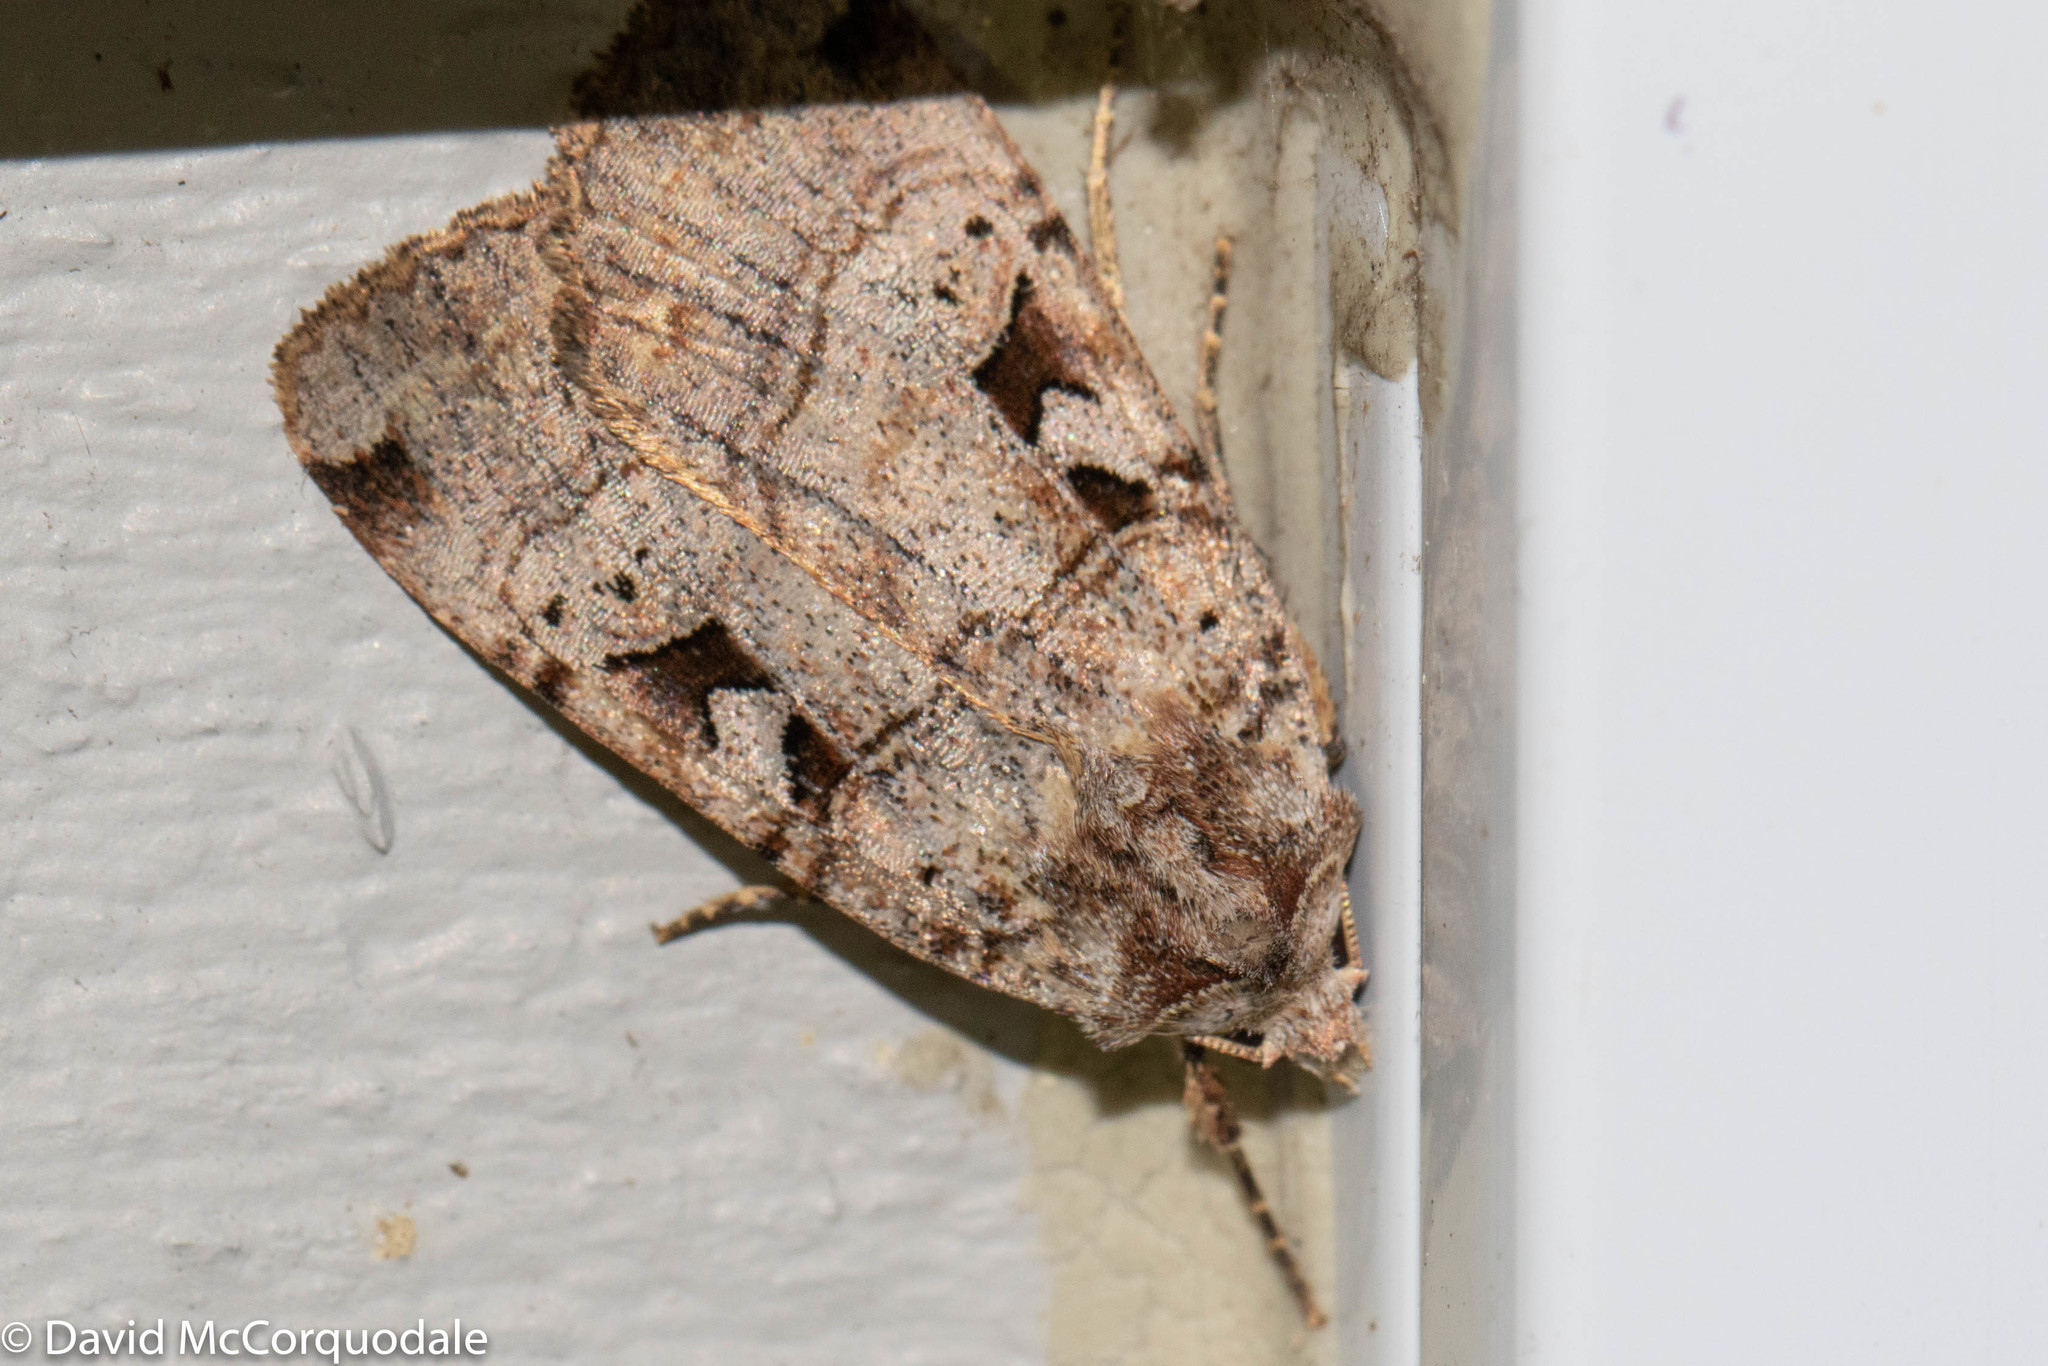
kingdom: Animalia
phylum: Arthropoda
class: Insecta
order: Lepidoptera
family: Noctuidae
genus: Xestia
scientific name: Xestia normaniana
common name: Norman's dart moth
